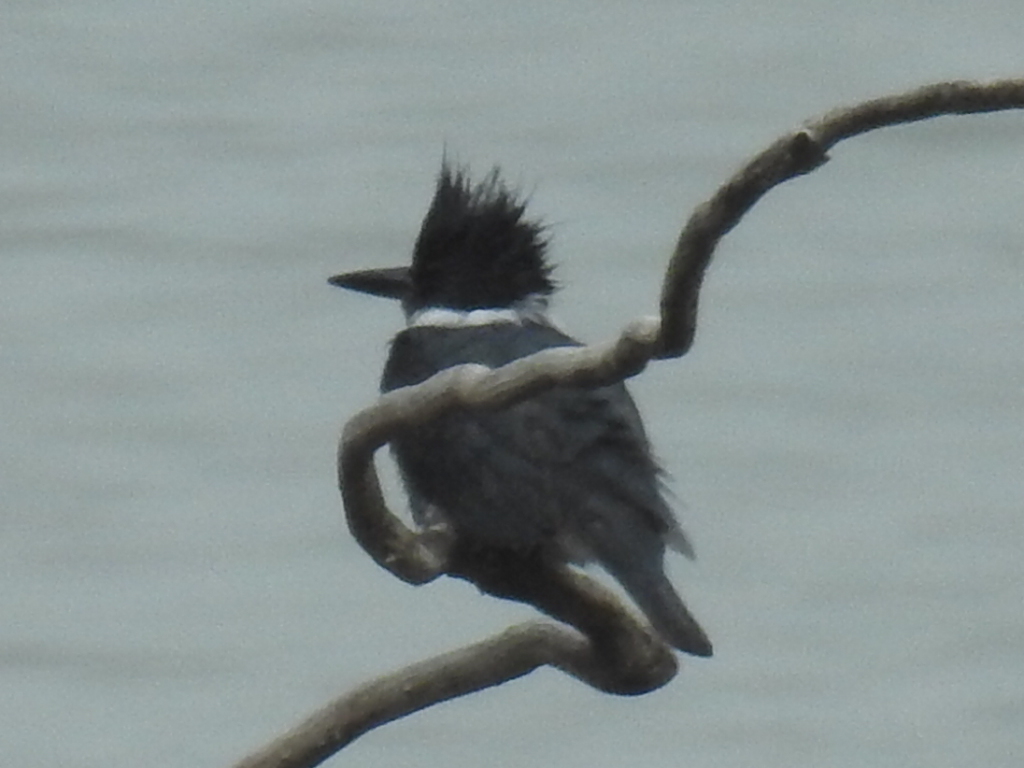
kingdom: Animalia
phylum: Chordata
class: Aves
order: Coraciiformes
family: Alcedinidae
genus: Megaceryle
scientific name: Megaceryle alcyon
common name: Belted kingfisher
